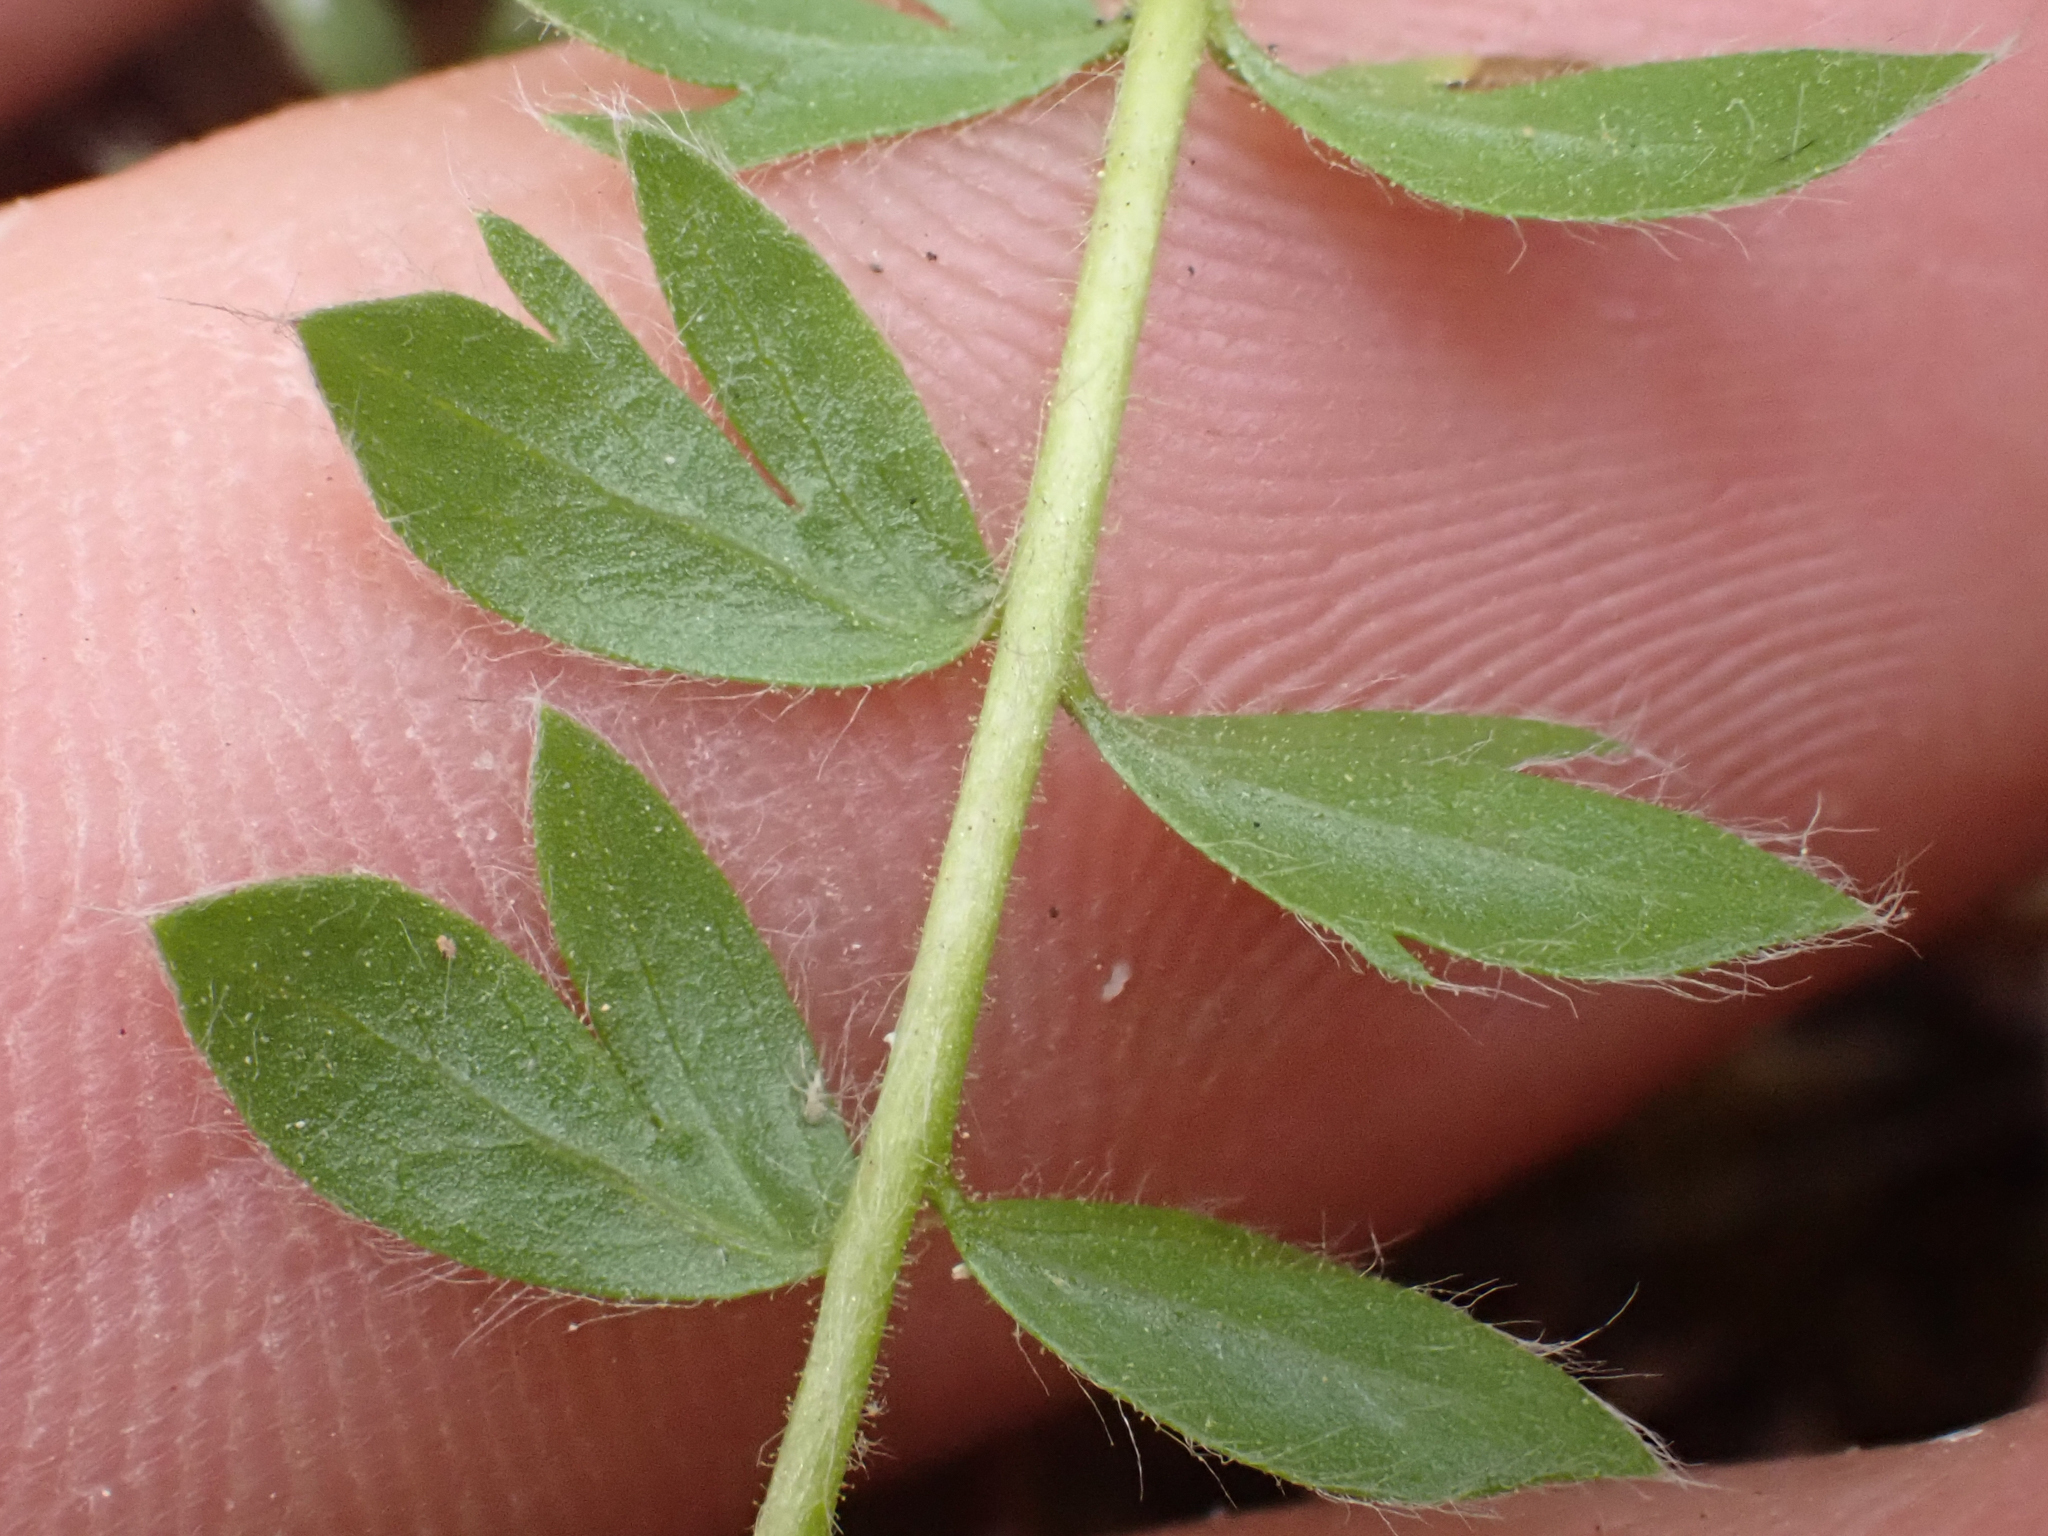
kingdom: Plantae
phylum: Tracheophyta
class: Magnoliopsida
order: Rosales
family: Rosaceae
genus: Potentilla
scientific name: Potentilla howellii
